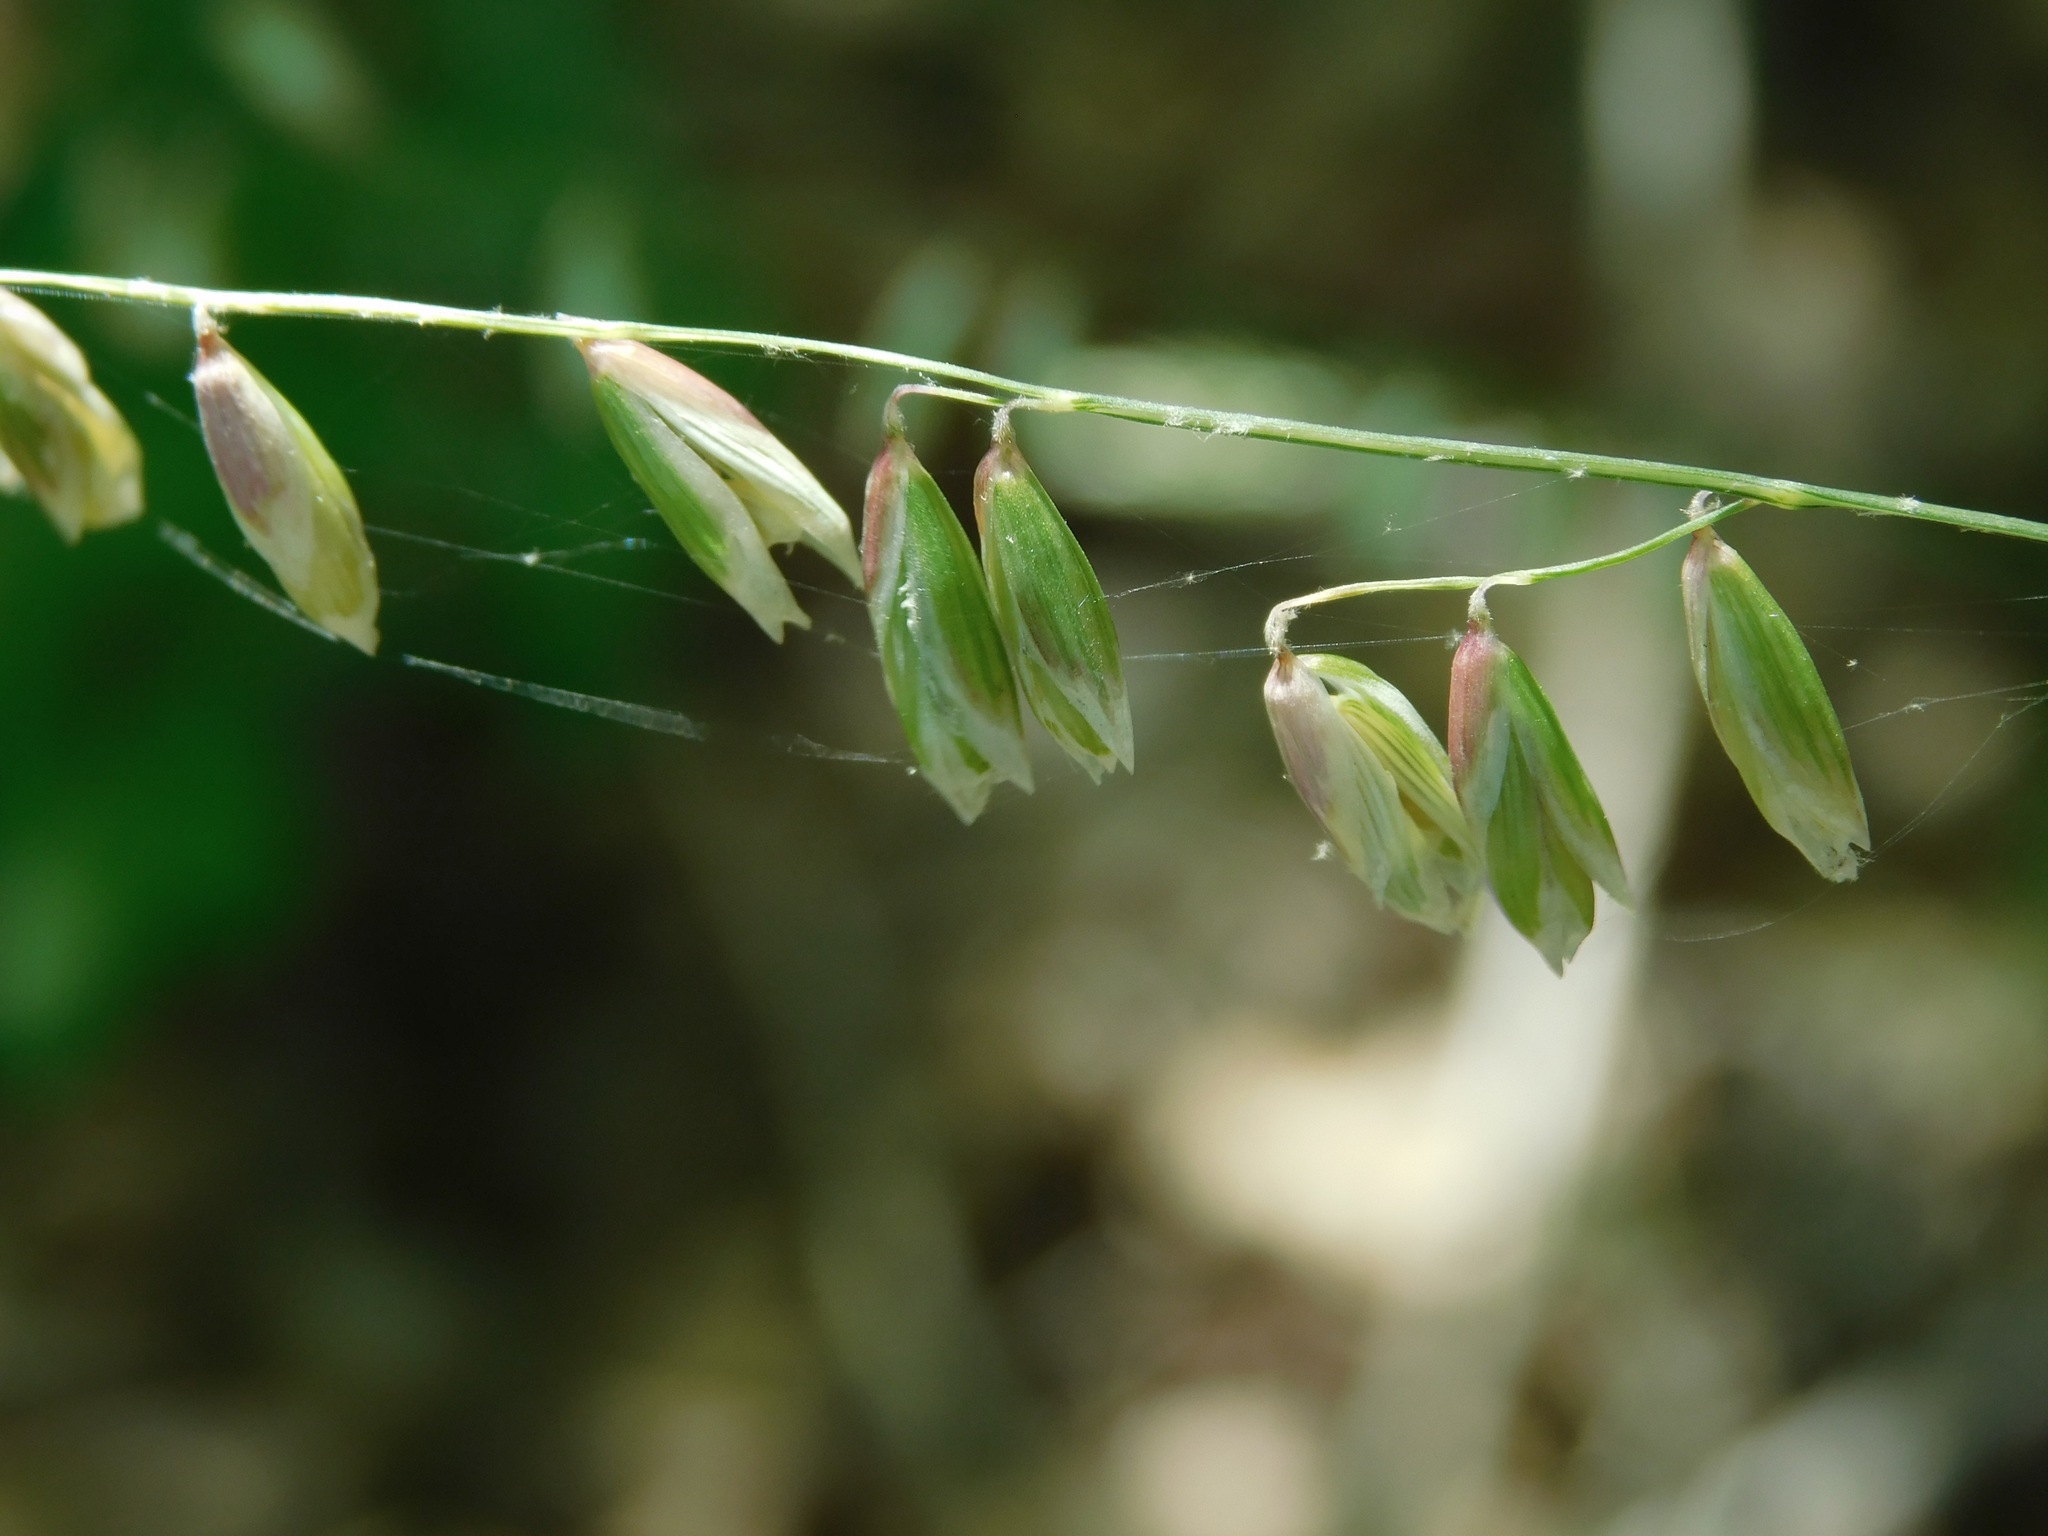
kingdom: Plantae
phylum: Tracheophyta
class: Liliopsida
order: Poales
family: Poaceae
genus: Melica
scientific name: Melica mutica
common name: Two-flower melic
